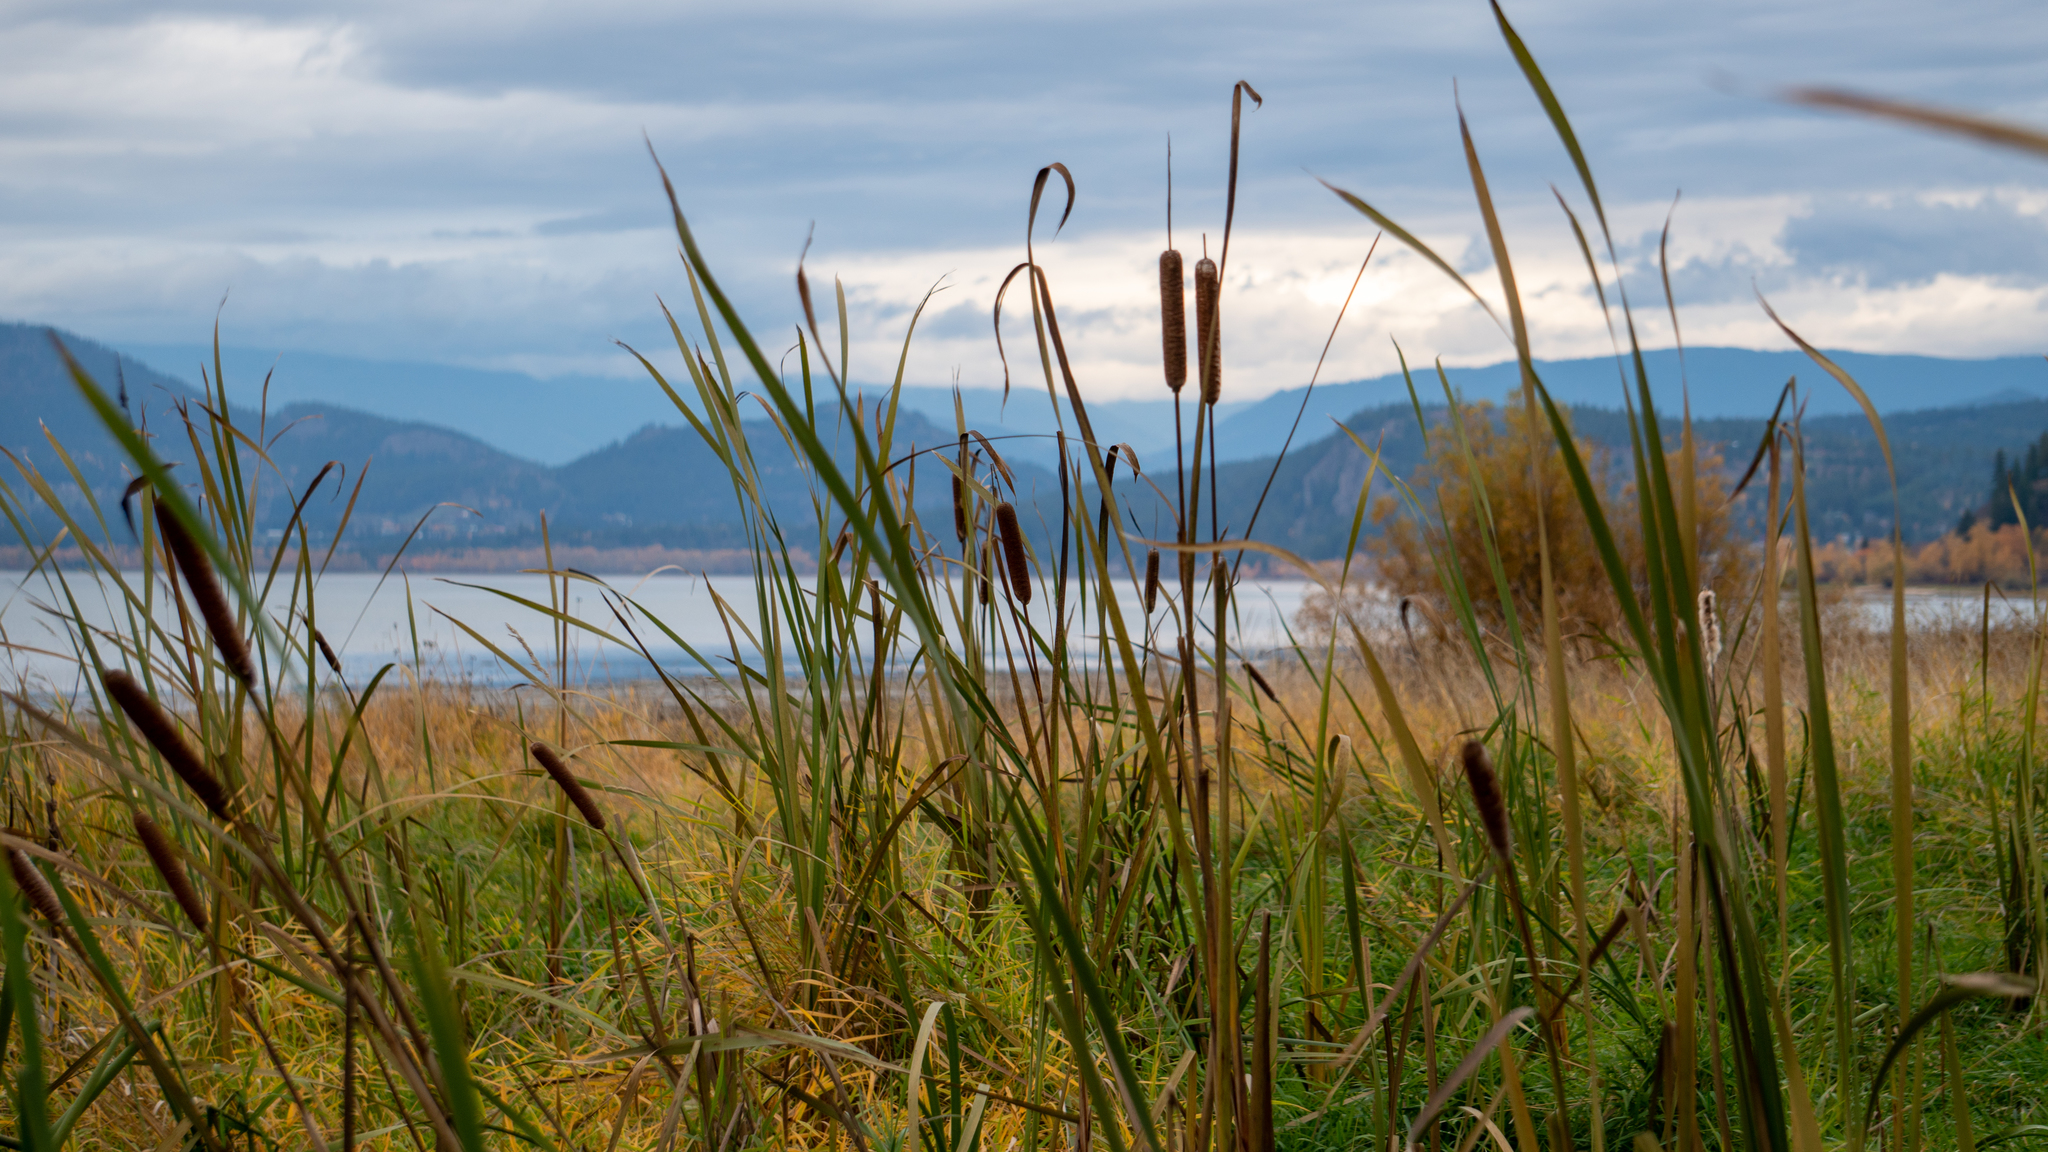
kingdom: Plantae
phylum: Tracheophyta
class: Liliopsida
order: Poales
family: Typhaceae
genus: Typha
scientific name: Typha latifolia
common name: Broadleaf cattail
